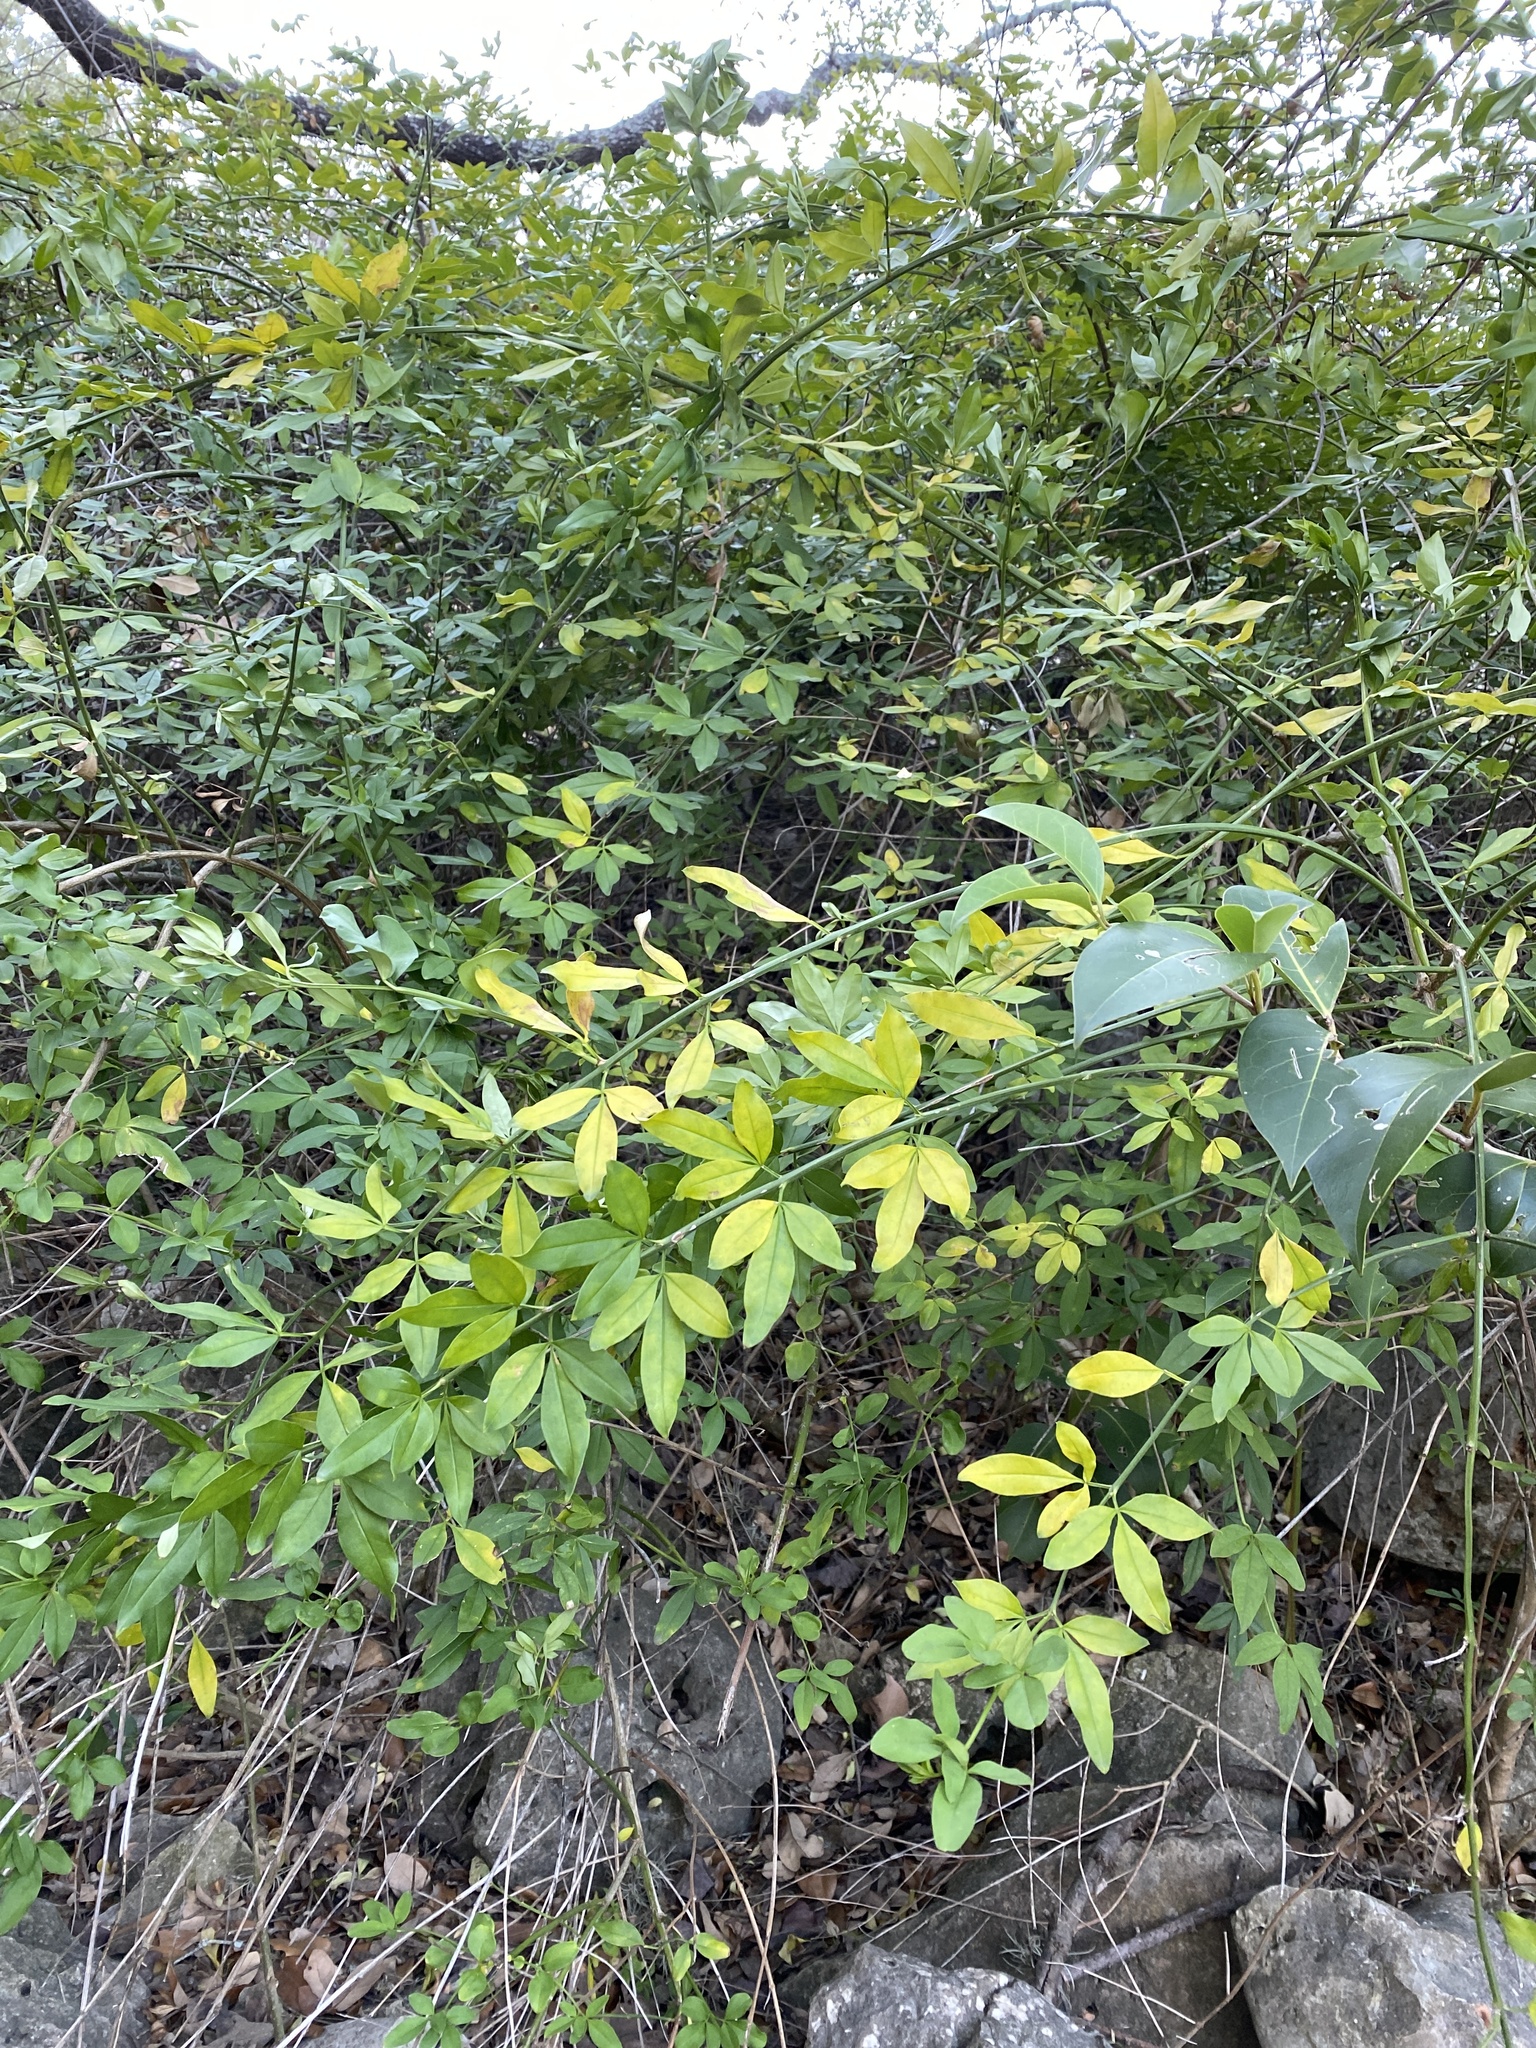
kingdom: Plantae
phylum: Tracheophyta
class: Magnoliopsida
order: Lamiales
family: Oleaceae
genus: Jasminum
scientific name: Jasminum mesnyi
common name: Japanese jasmine
